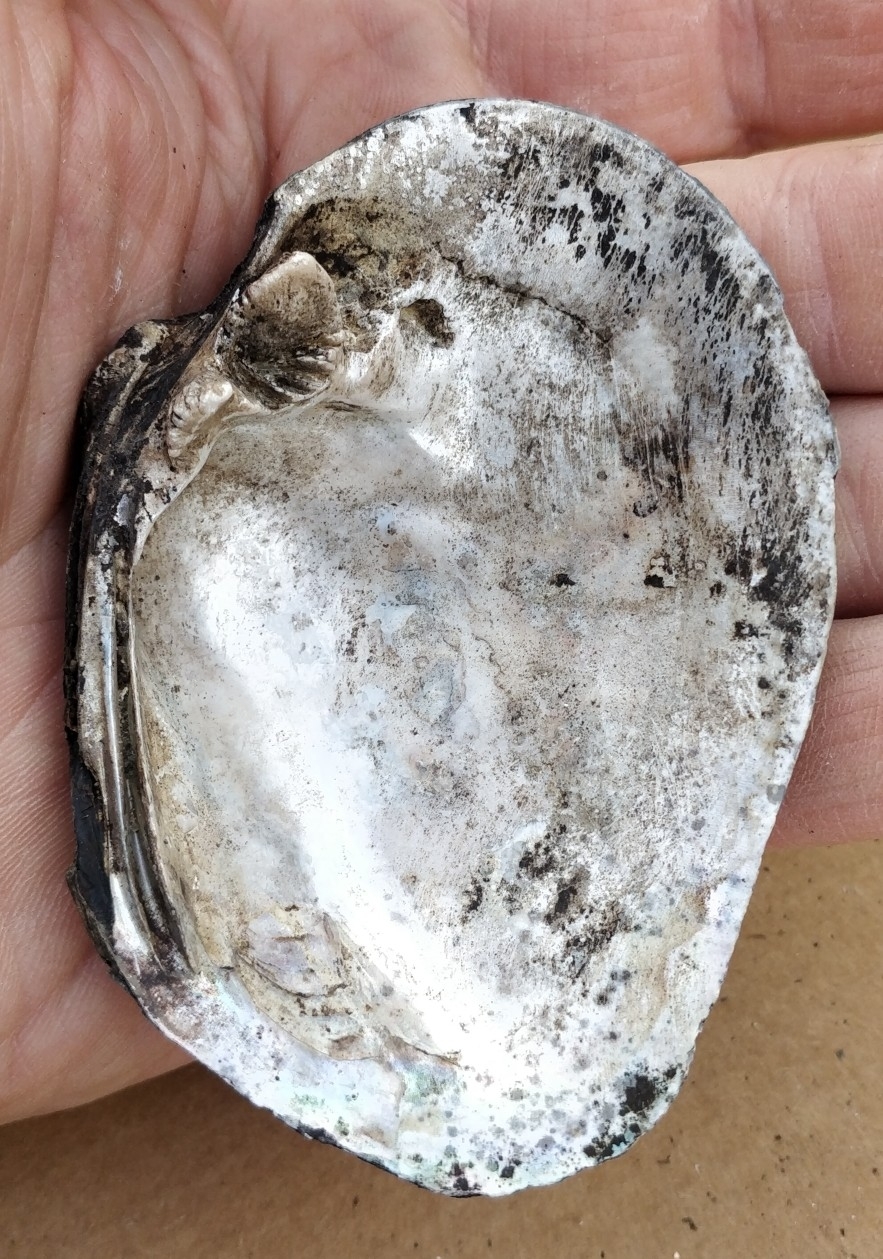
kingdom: Animalia
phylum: Mollusca
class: Bivalvia
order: Unionida
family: Unionidae
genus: Quadrula
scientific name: Quadrula quadrula
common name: Mapleleaf
